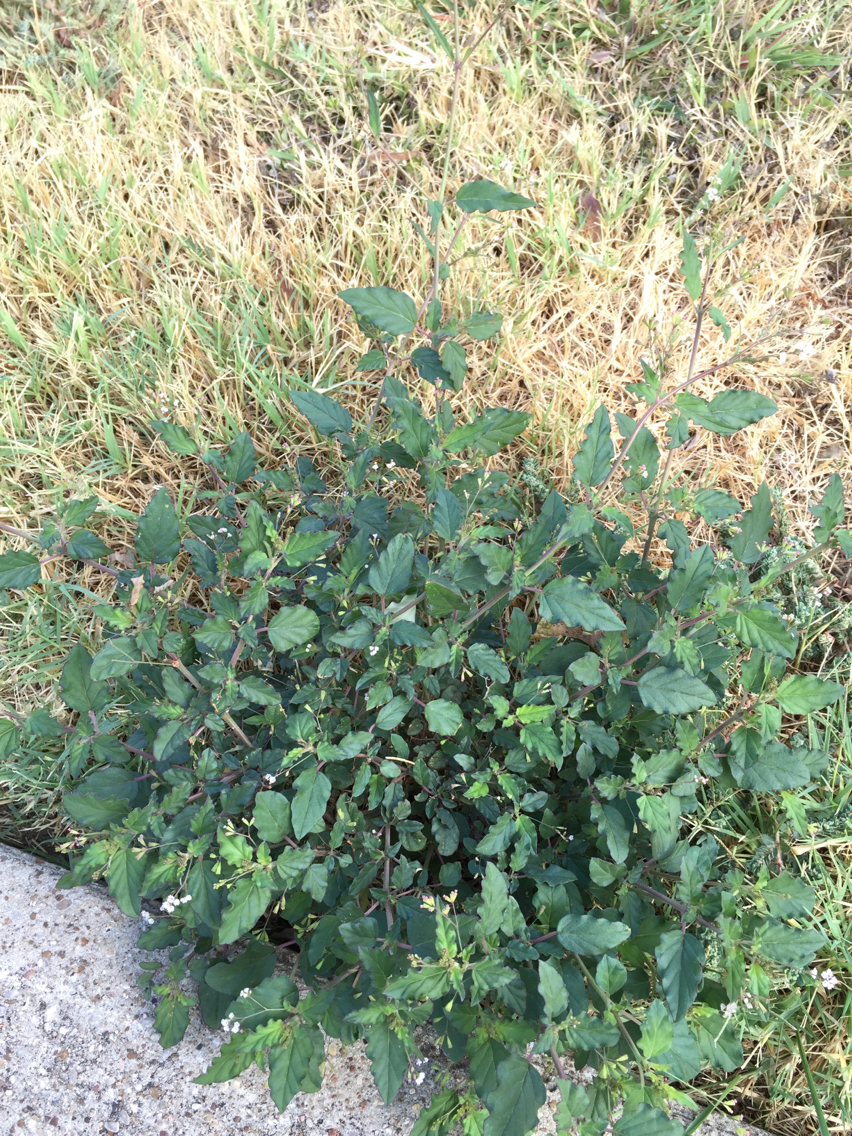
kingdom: Plantae
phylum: Tracheophyta
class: Magnoliopsida
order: Caryophyllales
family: Nyctaginaceae
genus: Boerhavia
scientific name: Boerhavia erecta
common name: Erect spiderling
